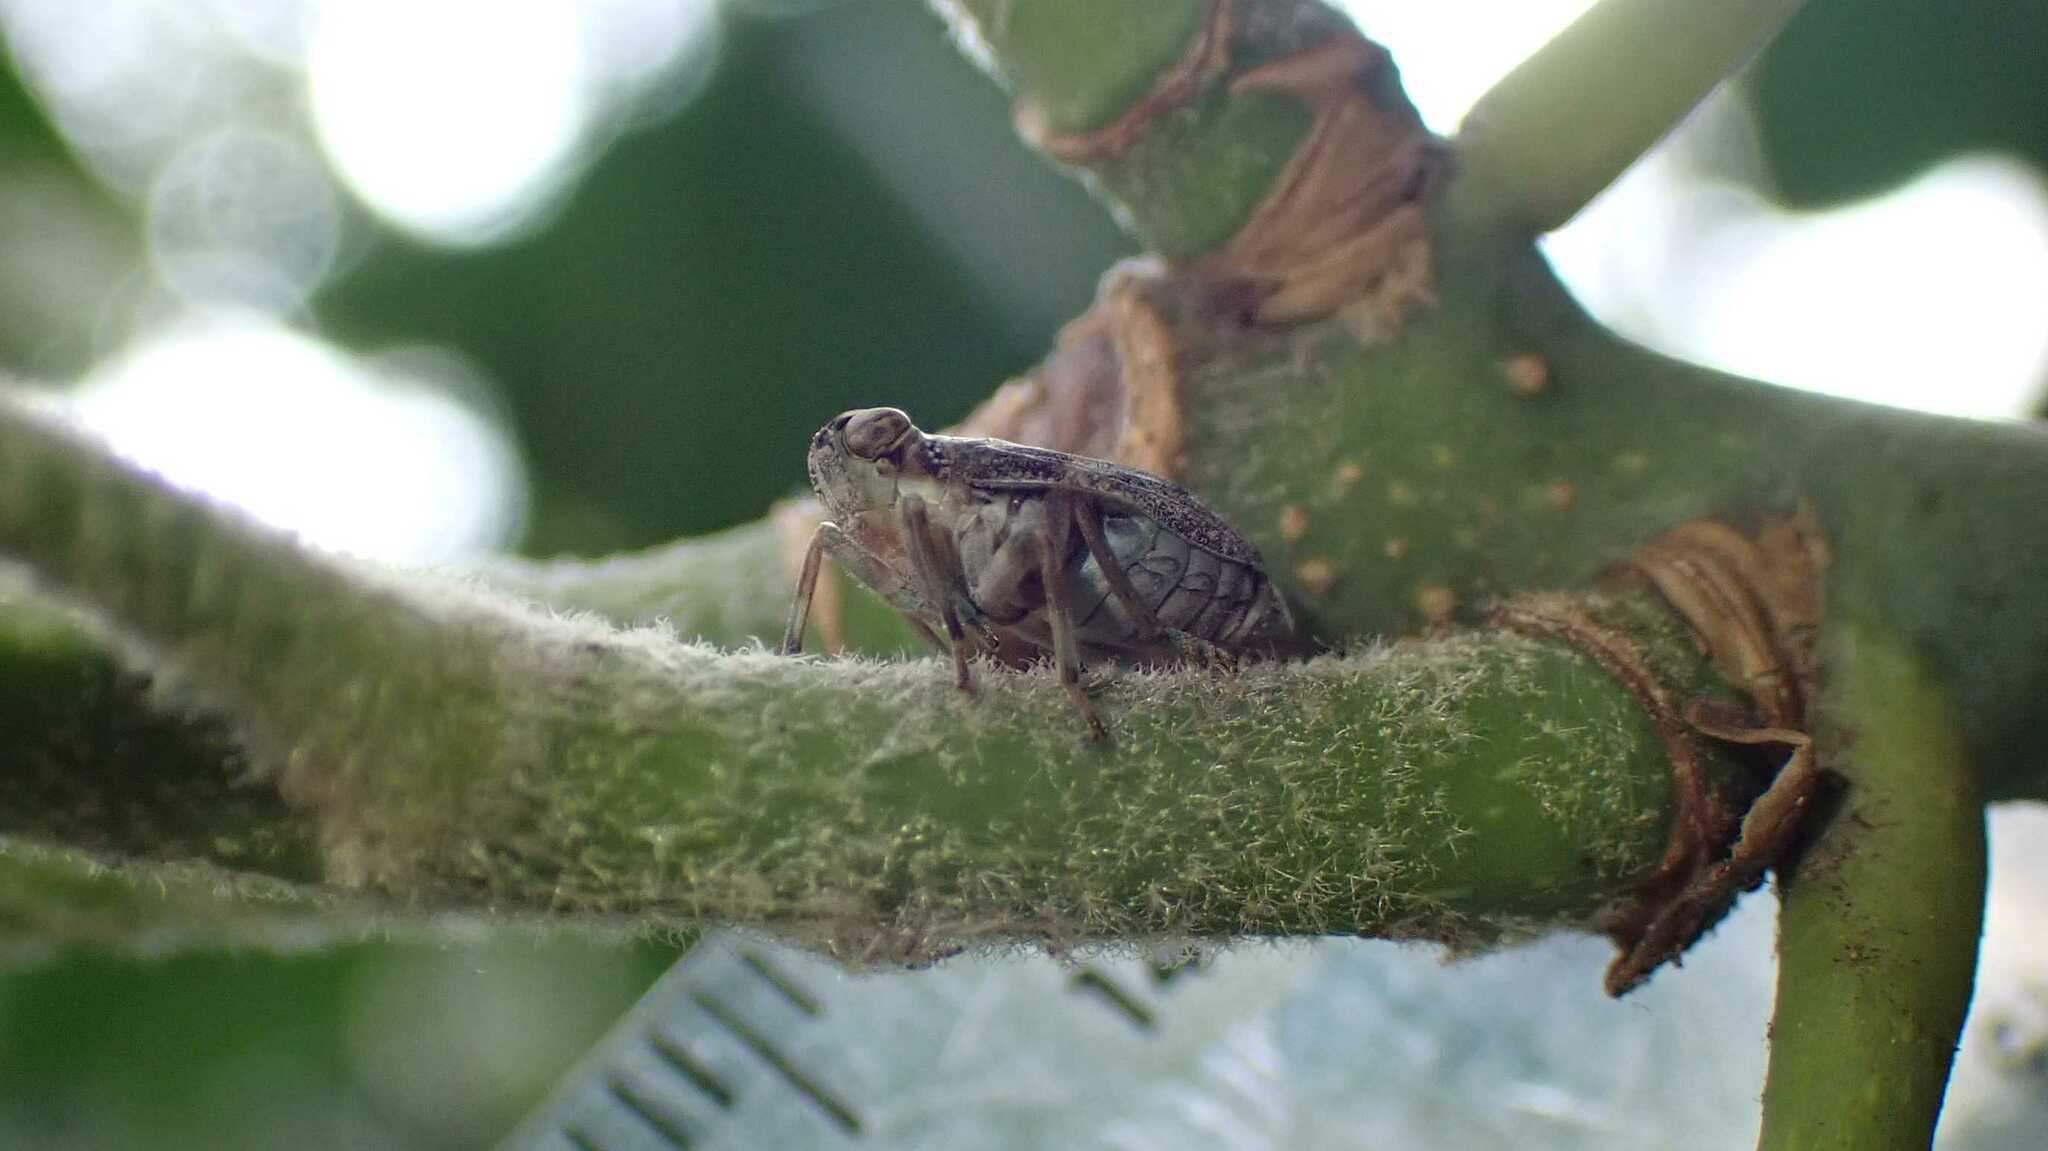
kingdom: Animalia
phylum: Arthropoda
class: Insecta
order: Hemiptera
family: Issidae
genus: Issus
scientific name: Issus coleoptratus
